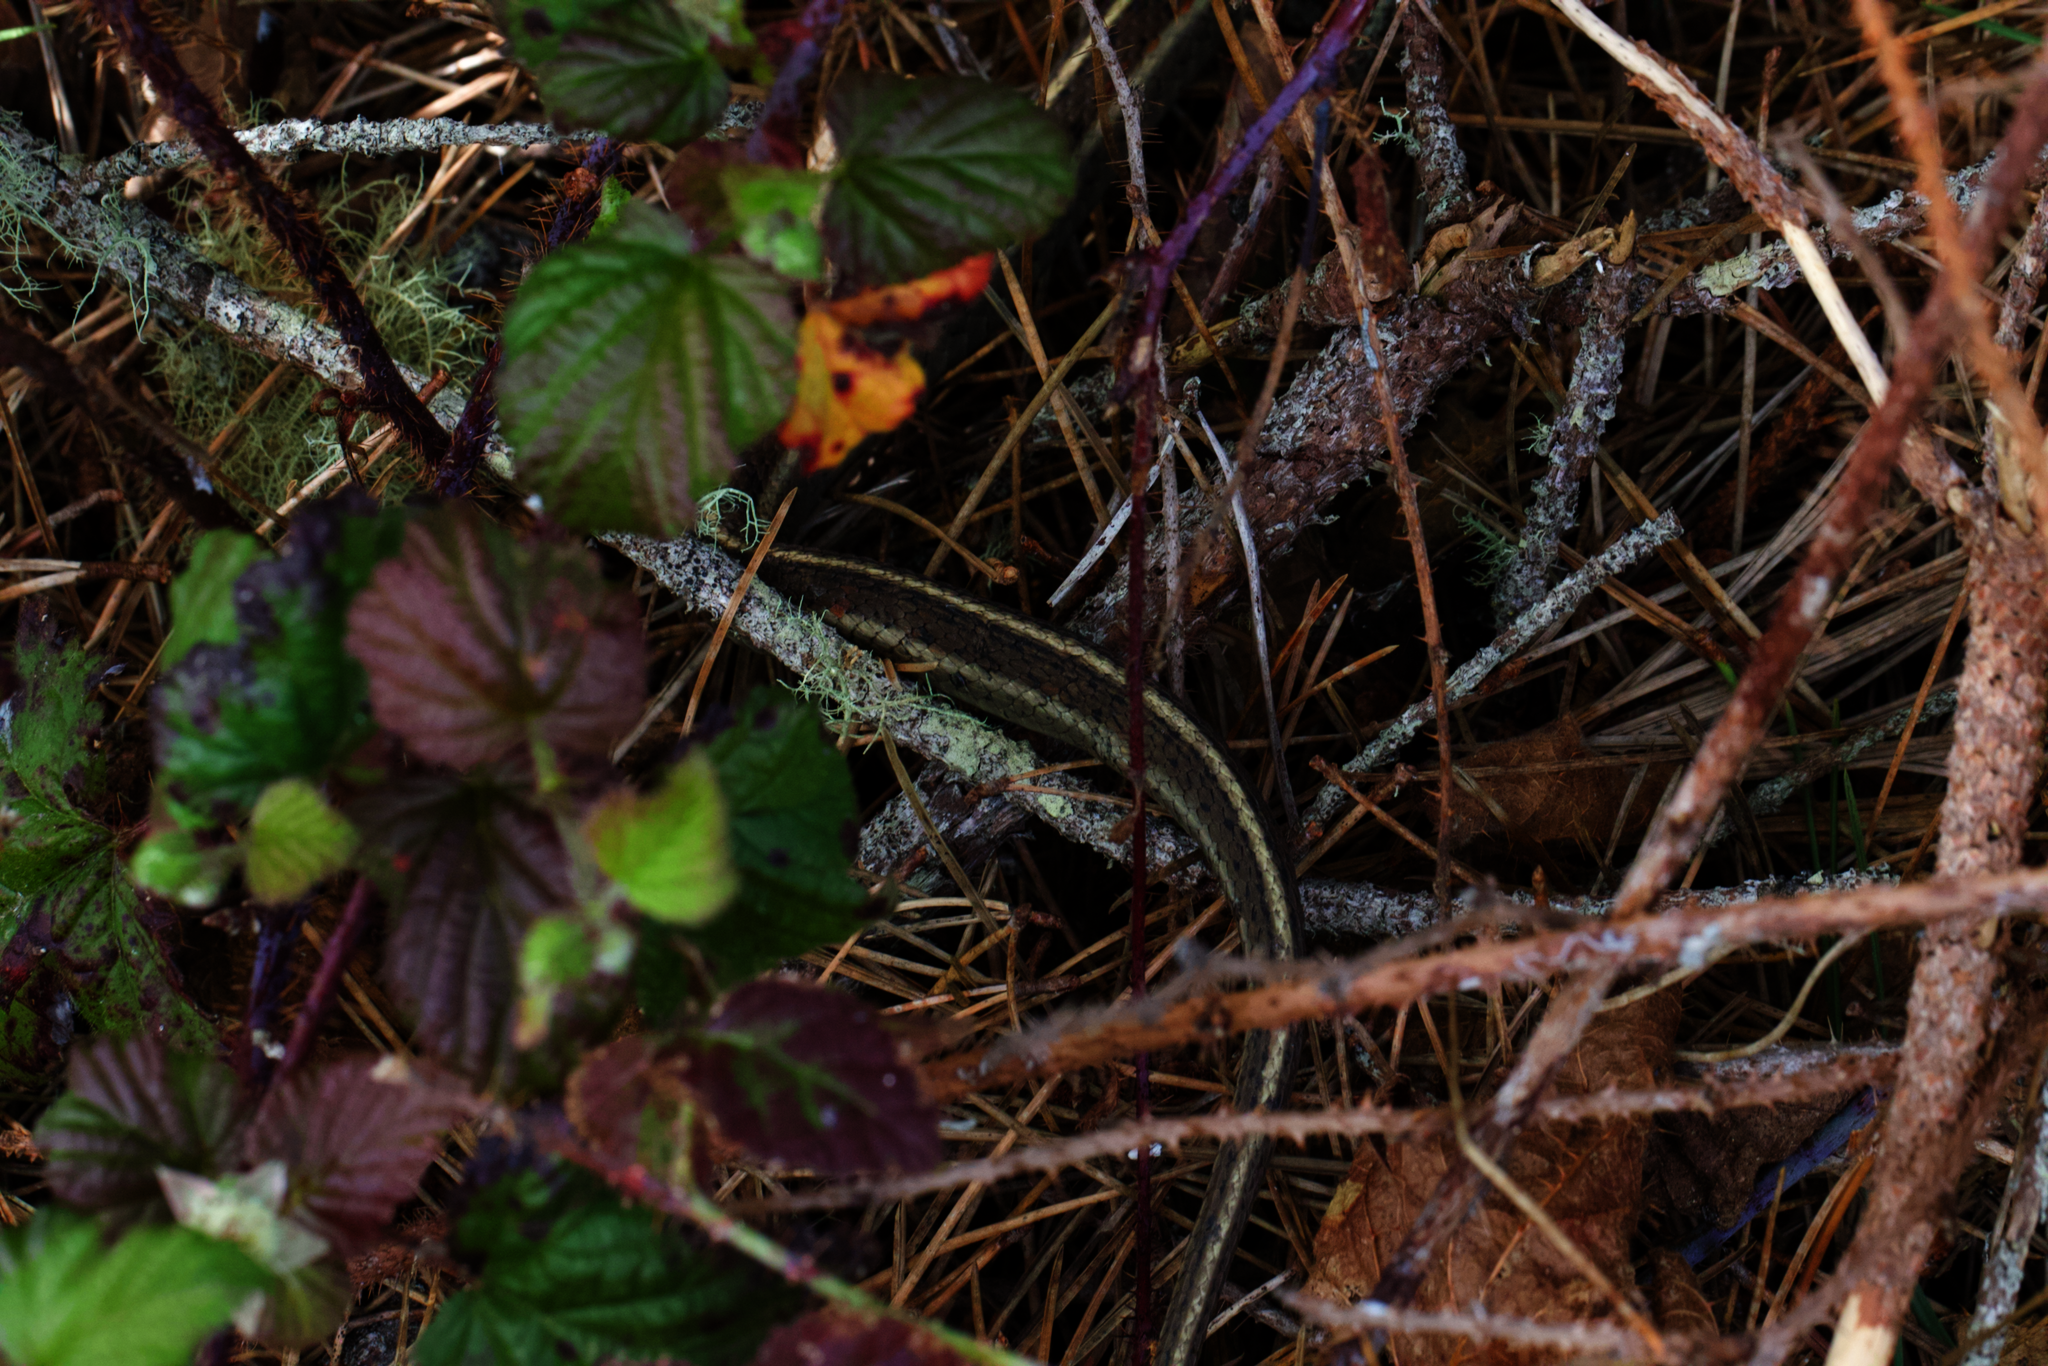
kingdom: Animalia
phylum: Chordata
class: Squamata
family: Colubridae
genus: Thamnophis
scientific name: Thamnophis elegans
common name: Western terrestrial garter snake
